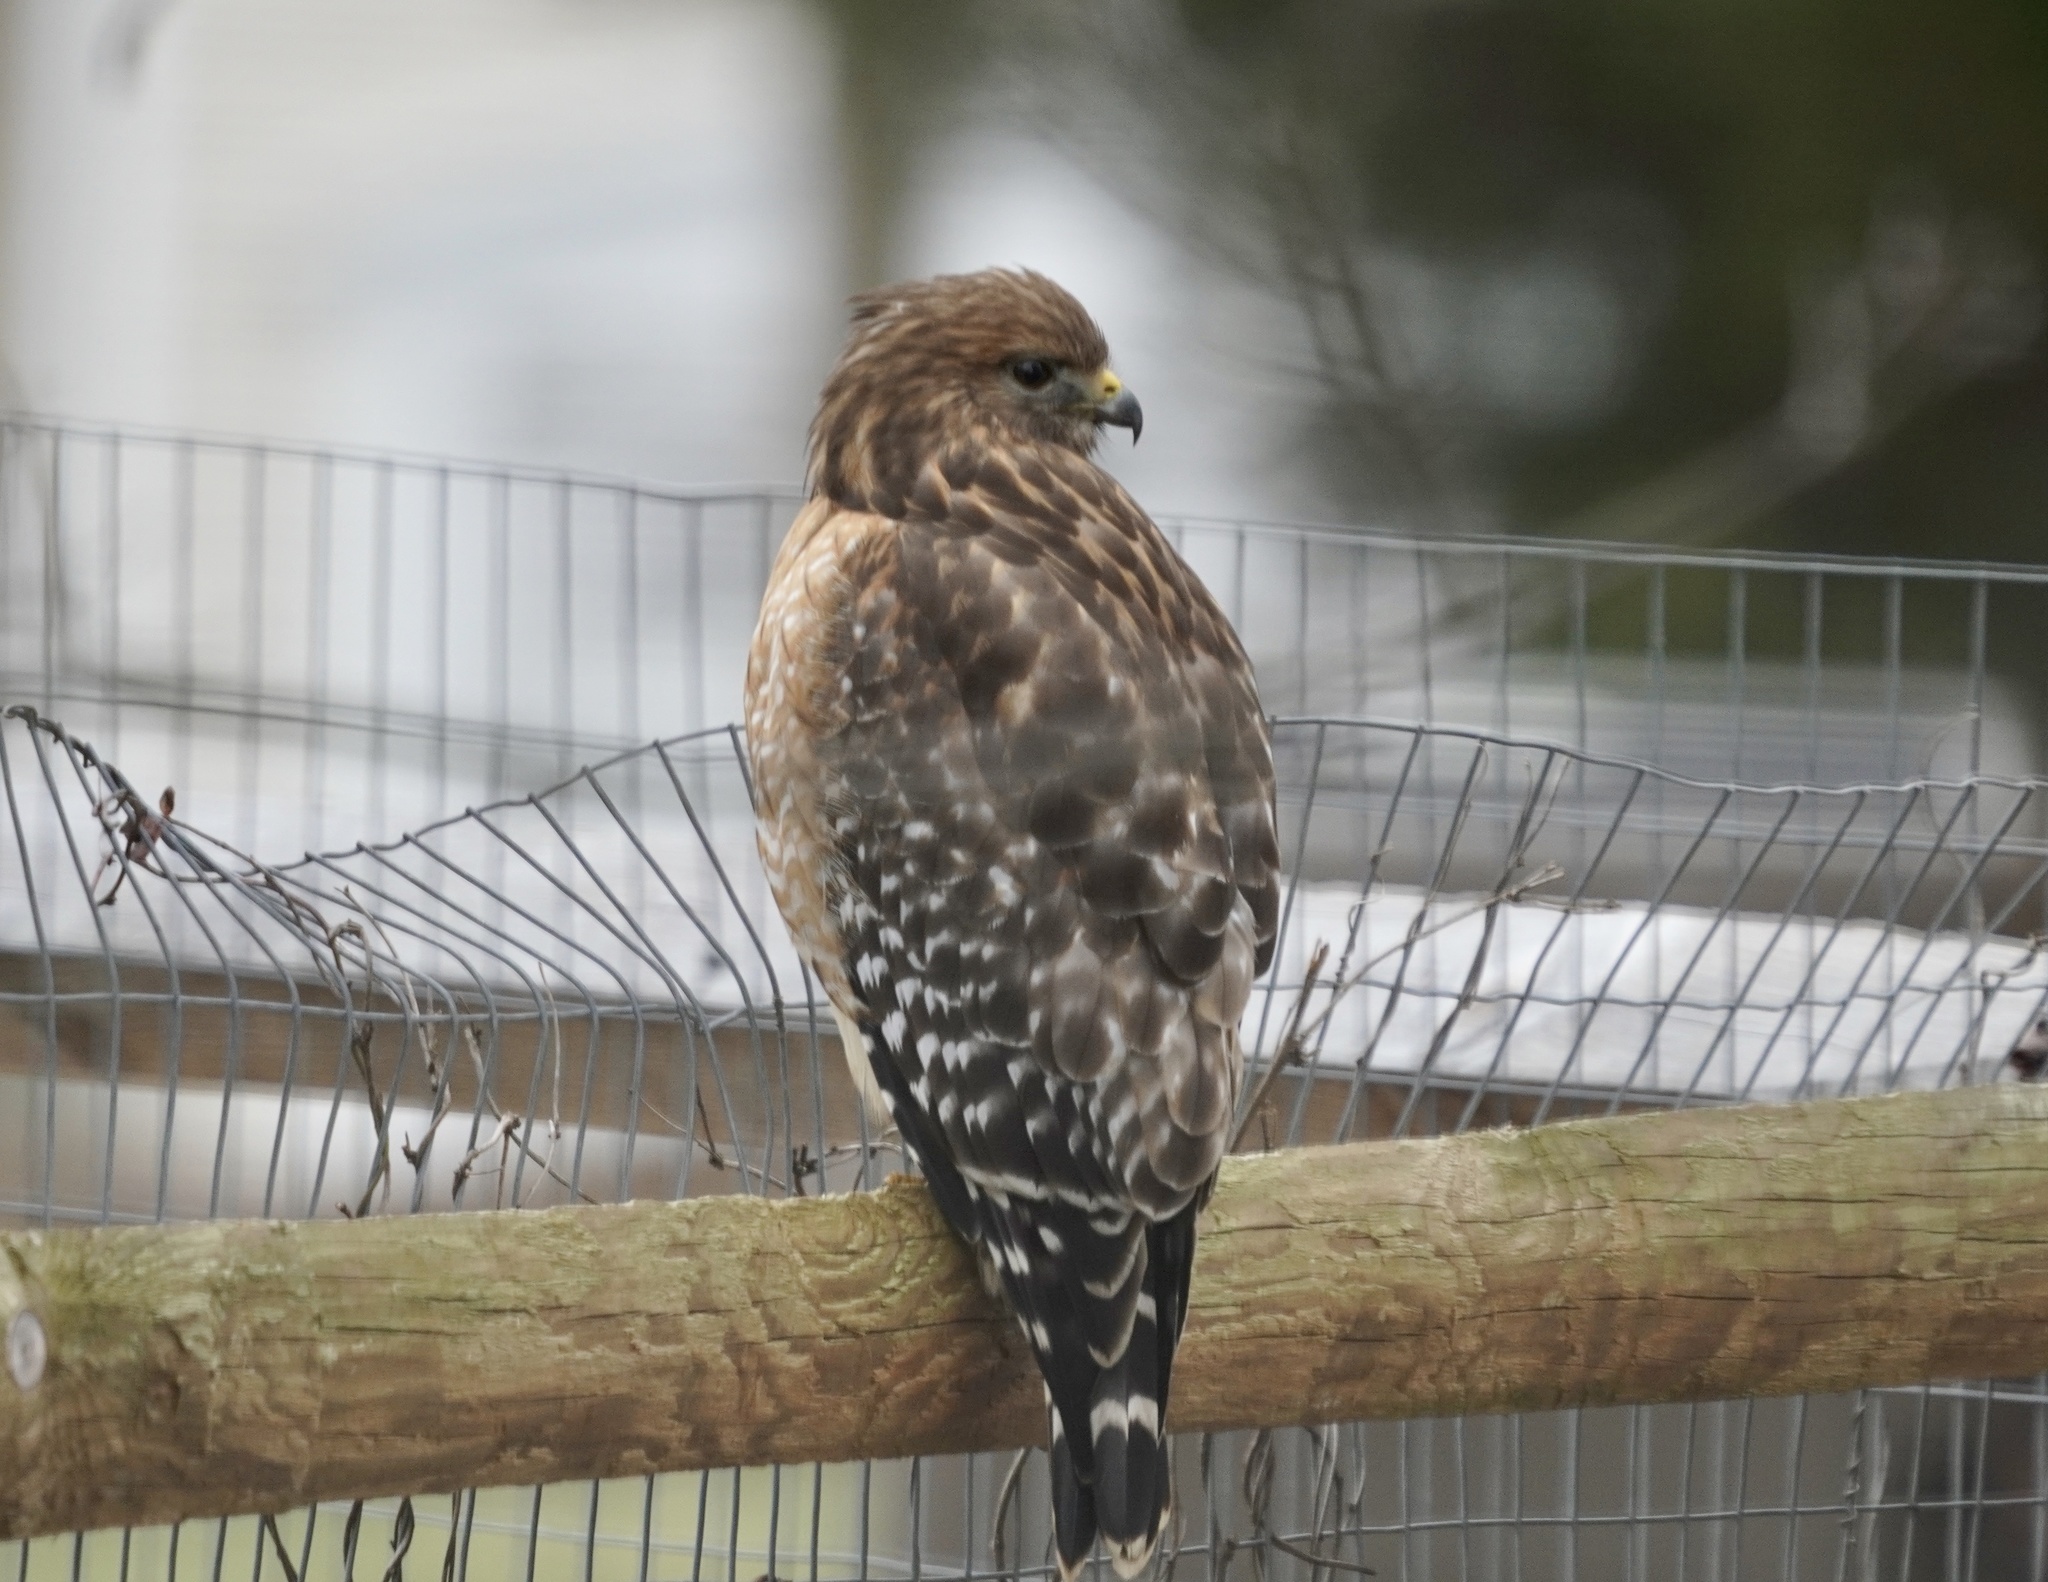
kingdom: Animalia
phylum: Chordata
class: Aves
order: Accipitriformes
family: Accipitridae
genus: Buteo
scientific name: Buteo lineatus
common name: Red-shouldered hawk
